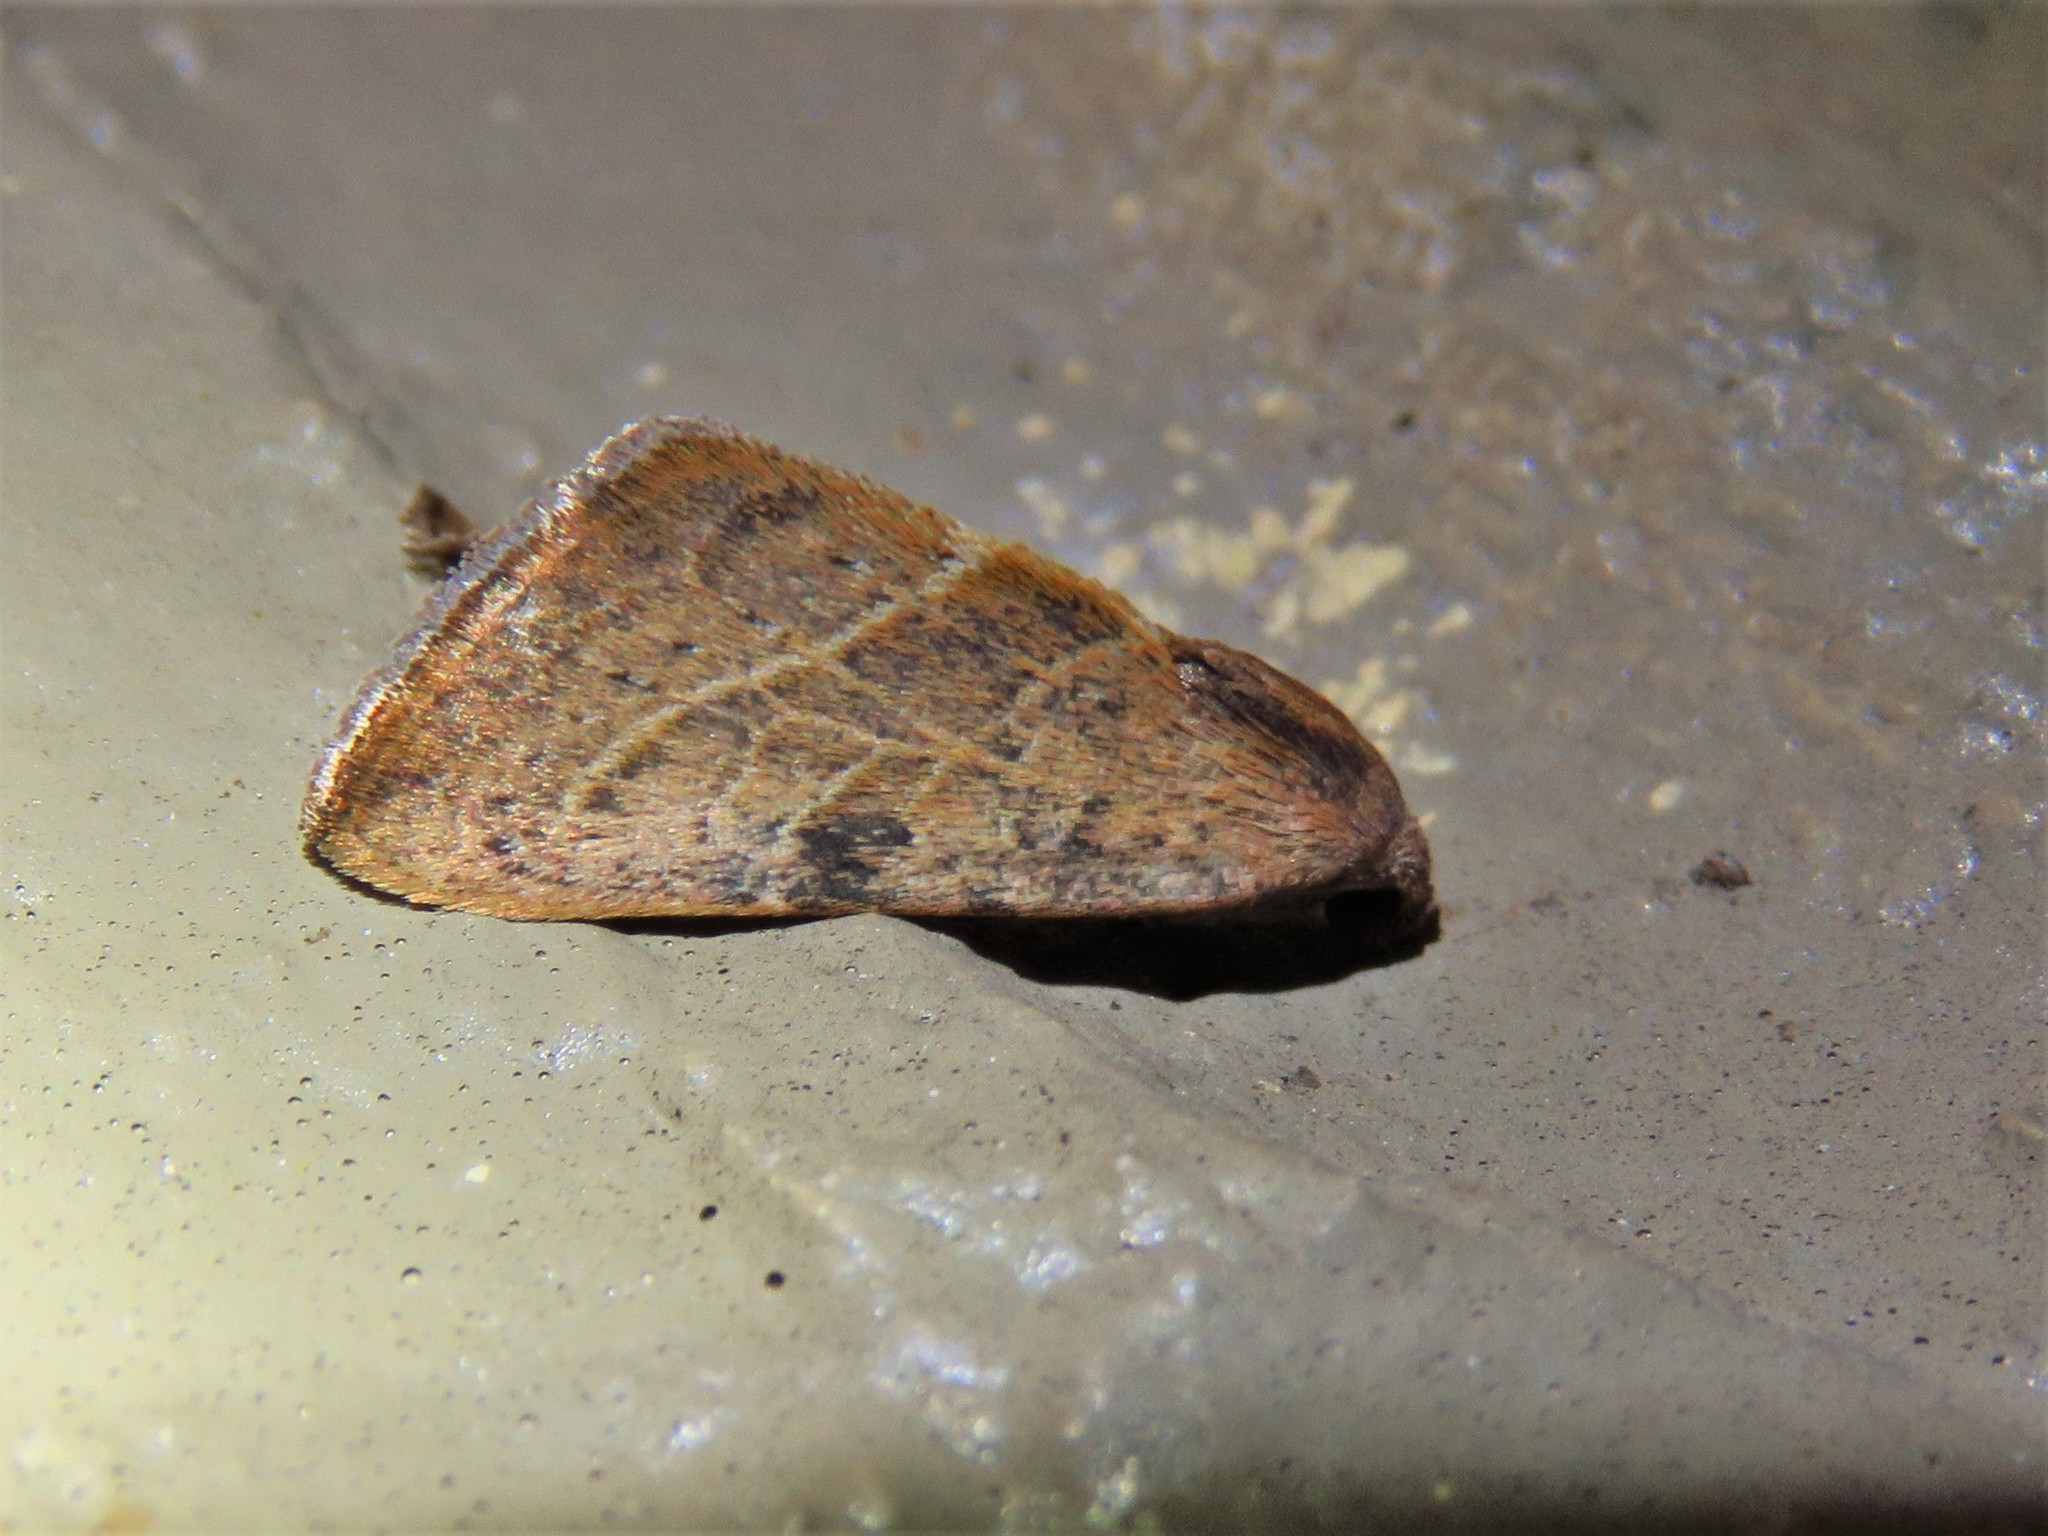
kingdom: Animalia
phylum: Arthropoda
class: Insecta
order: Lepidoptera
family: Noctuidae
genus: Galgula
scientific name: Galgula partita
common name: Wedgeling
